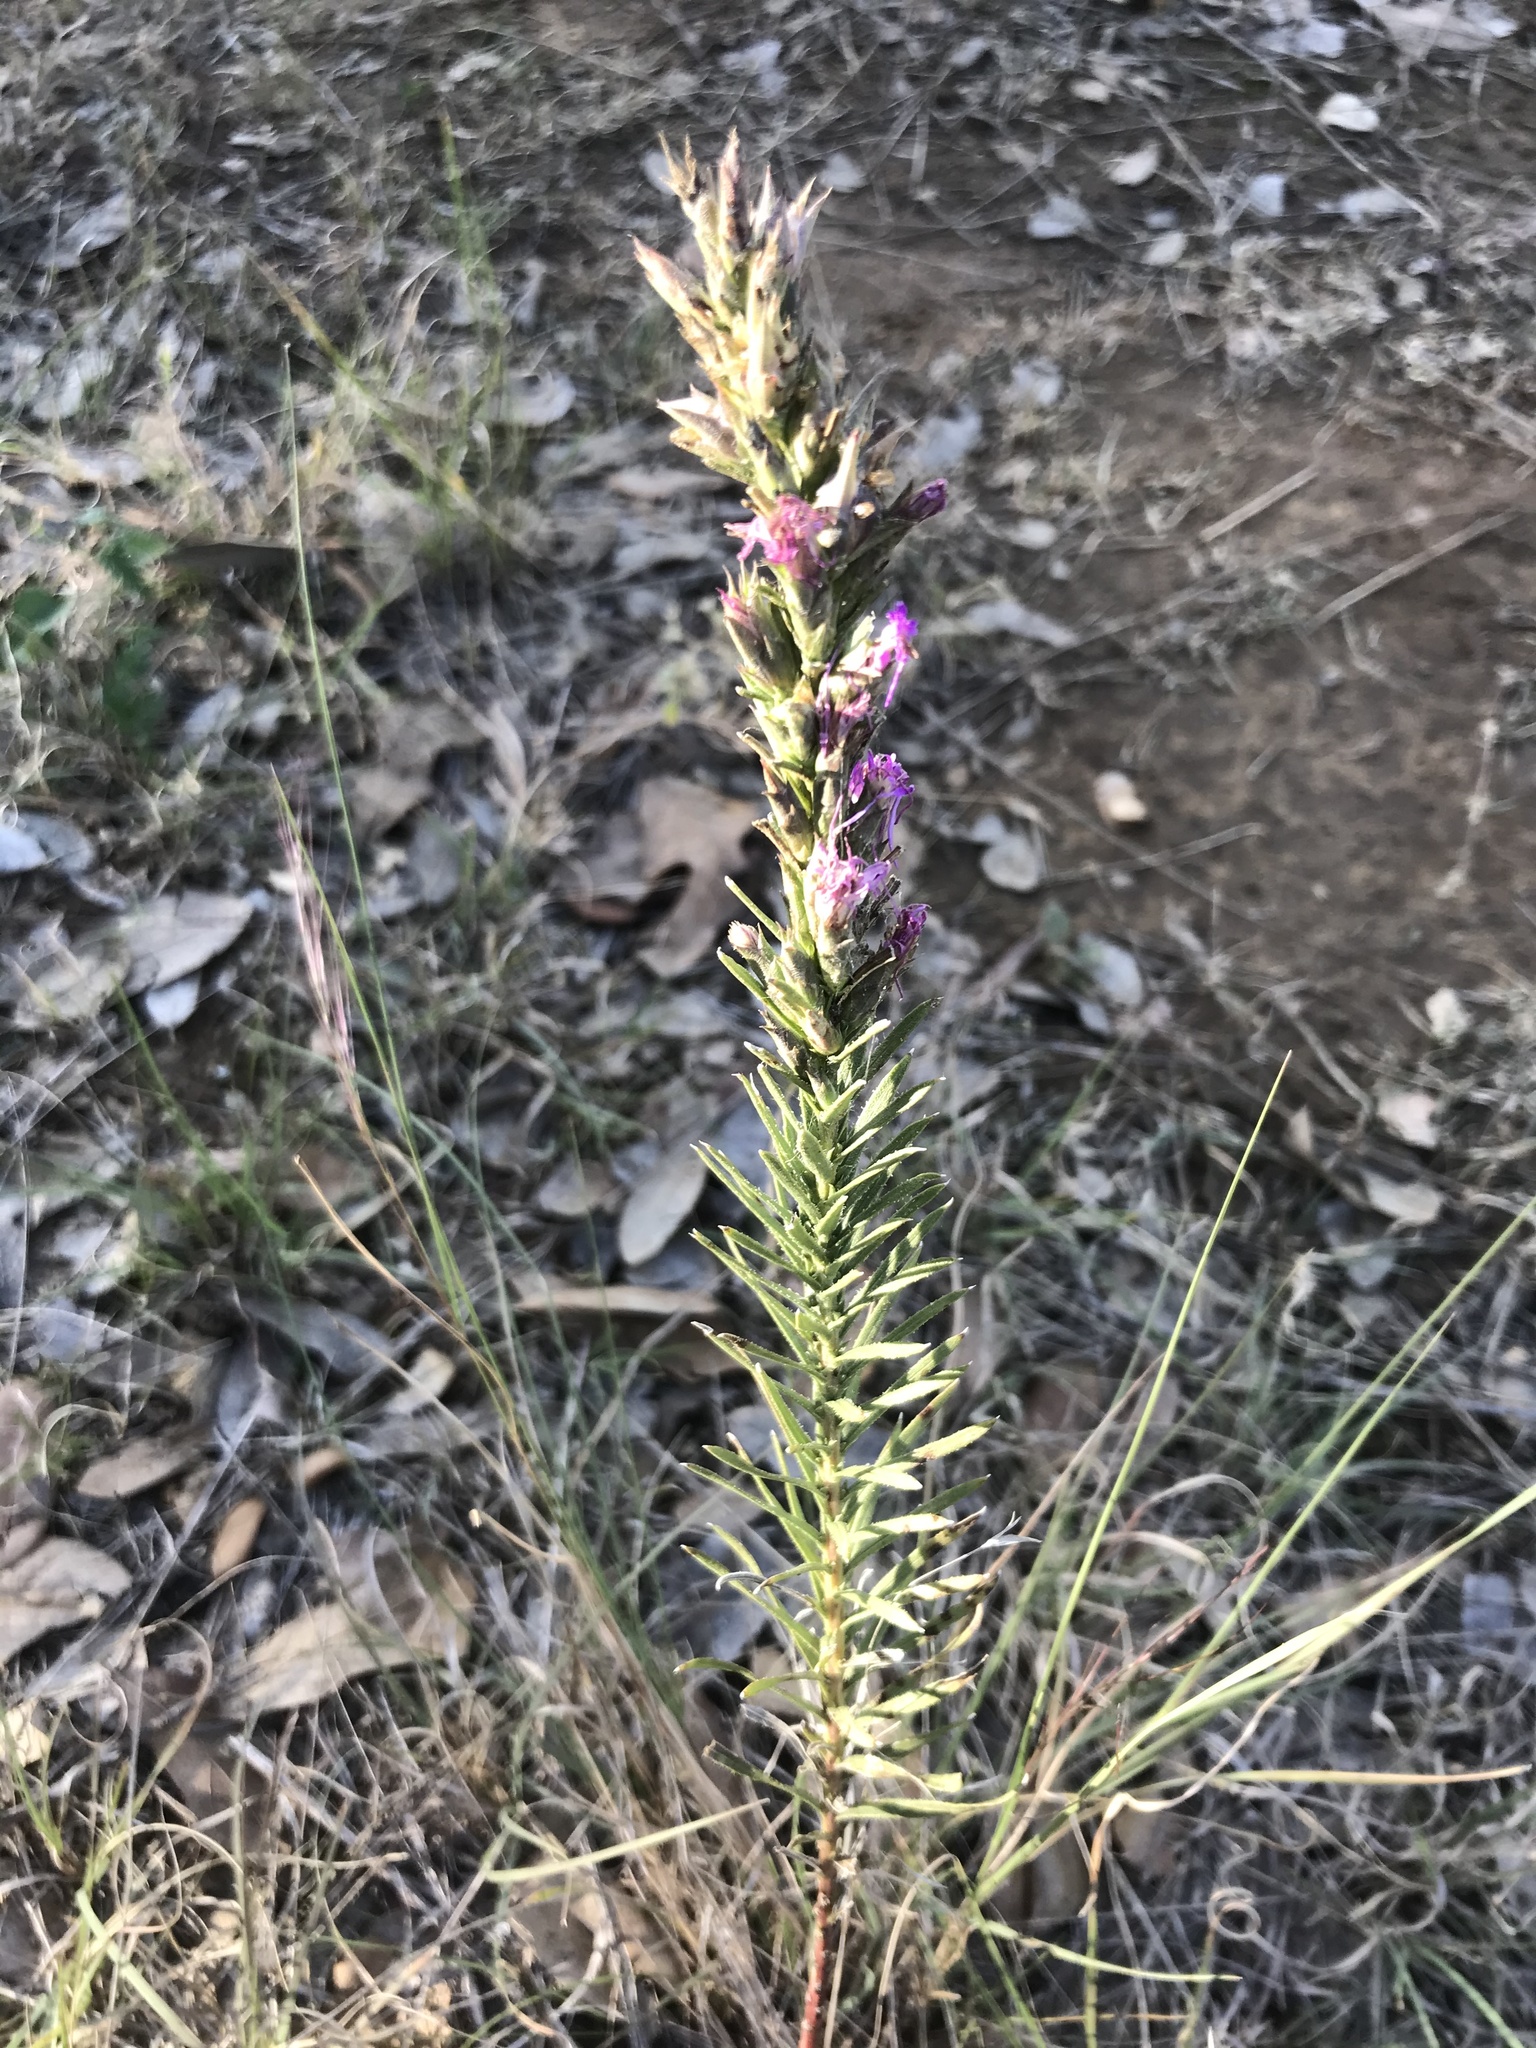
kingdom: Plantae
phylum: Tracheophyta
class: Magnoliopsida
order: Asterales
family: Asteraceae
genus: Liatris
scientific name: Liatris punctata
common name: Dotted gayfeather
